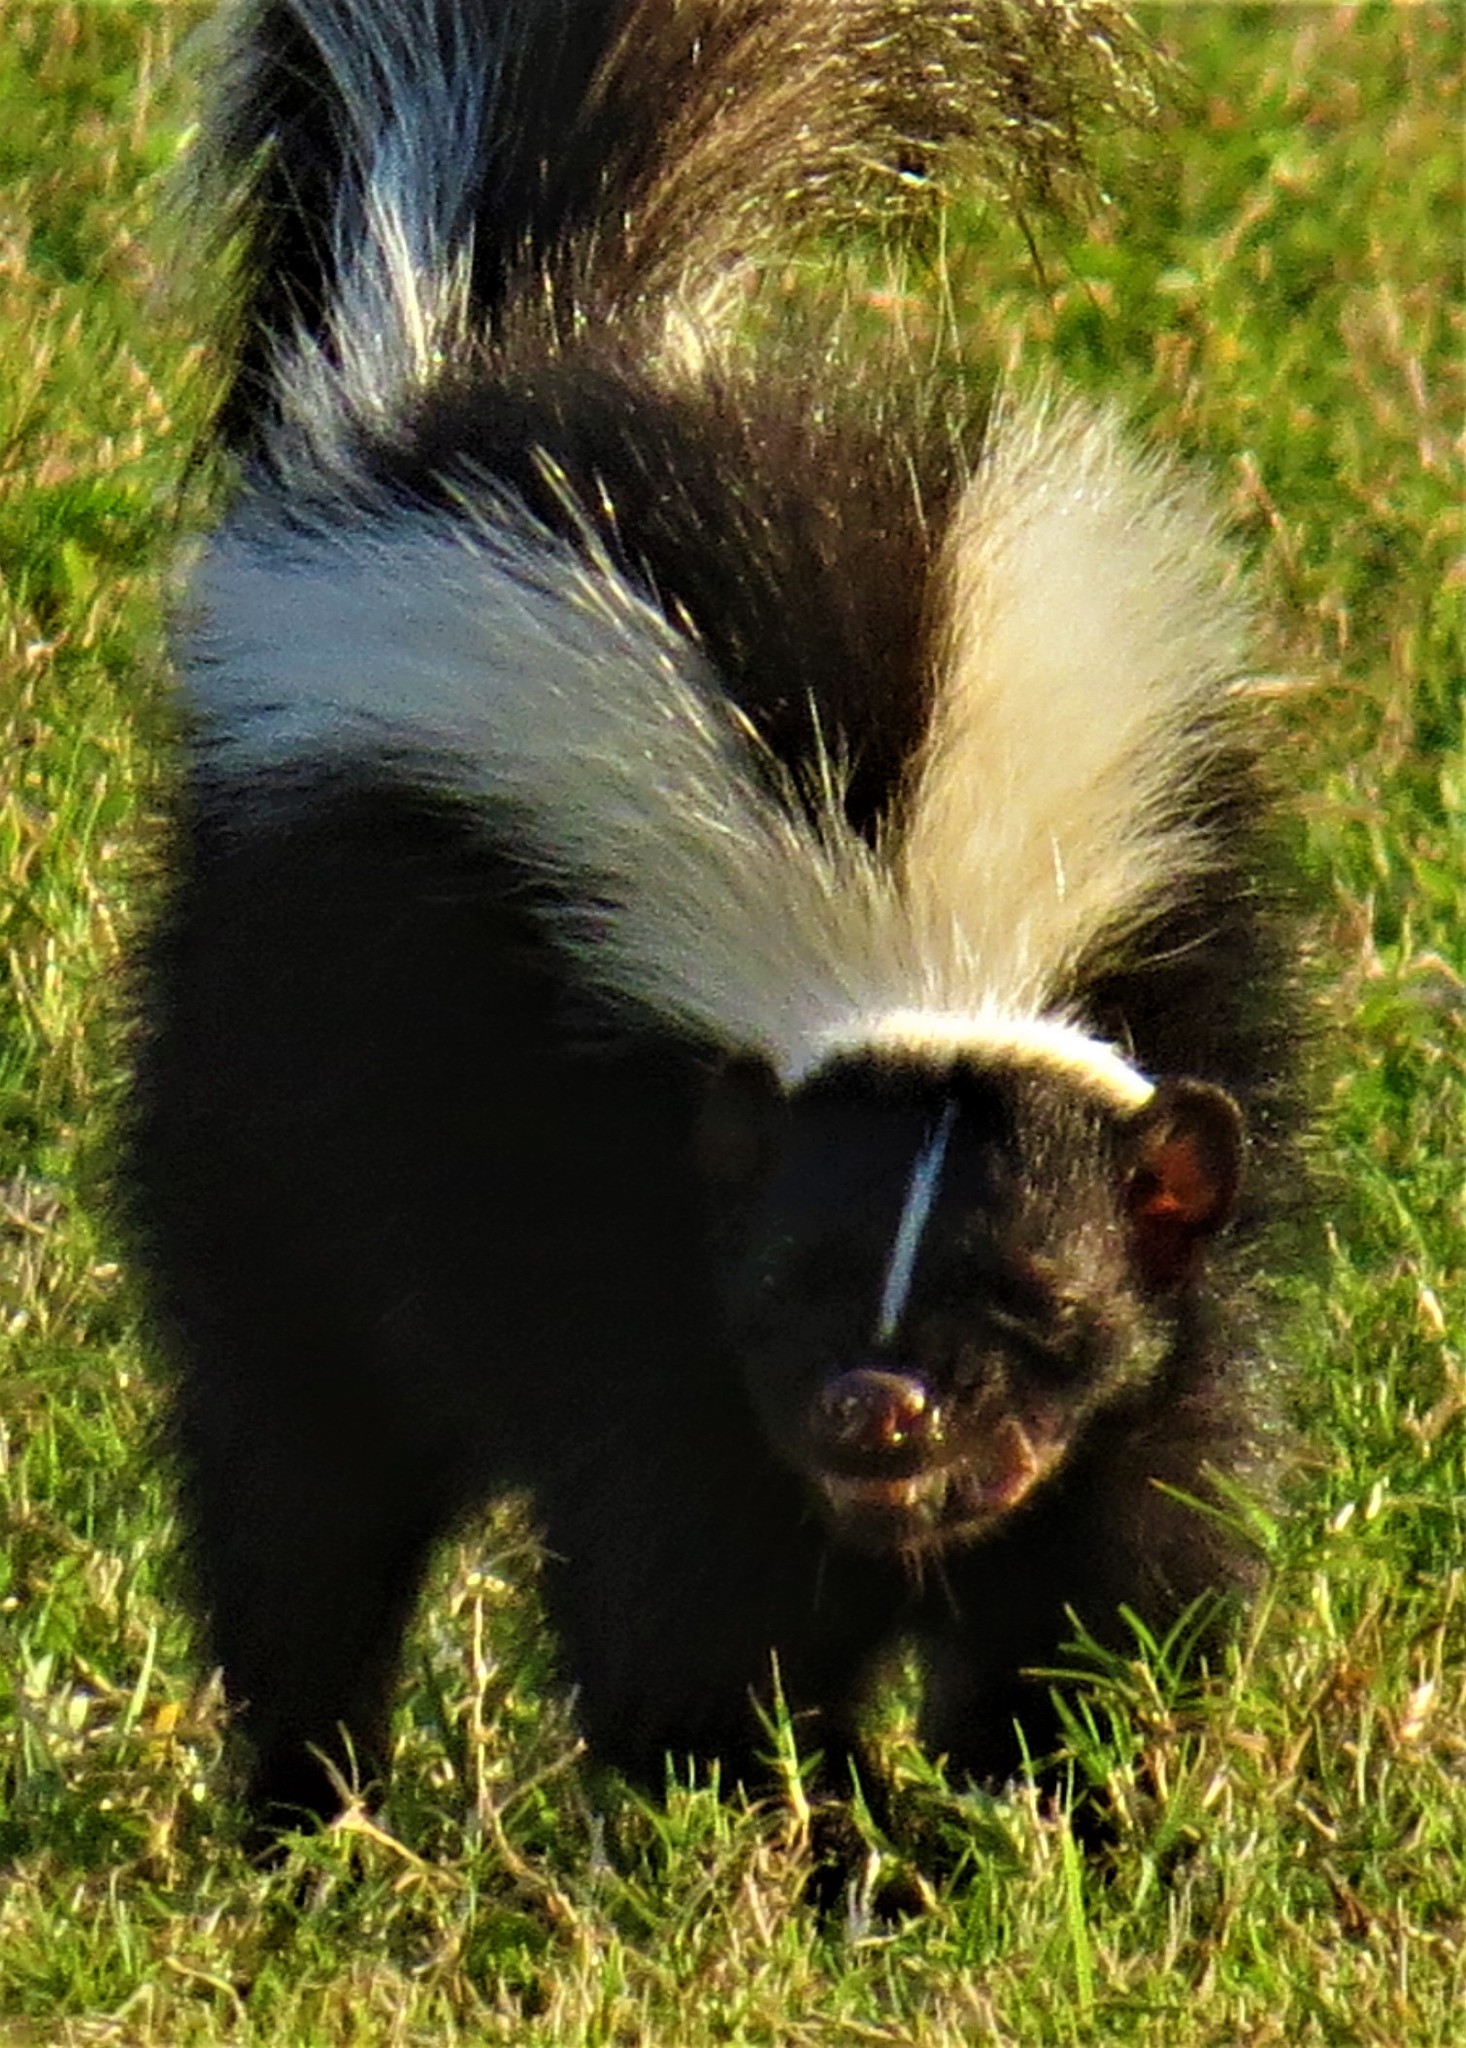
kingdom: Animalia
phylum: Chordata
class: Mammalia
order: Carnivora
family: Mephitidae
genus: Mephitis
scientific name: Mephitis mephitis
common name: Striped skunk
